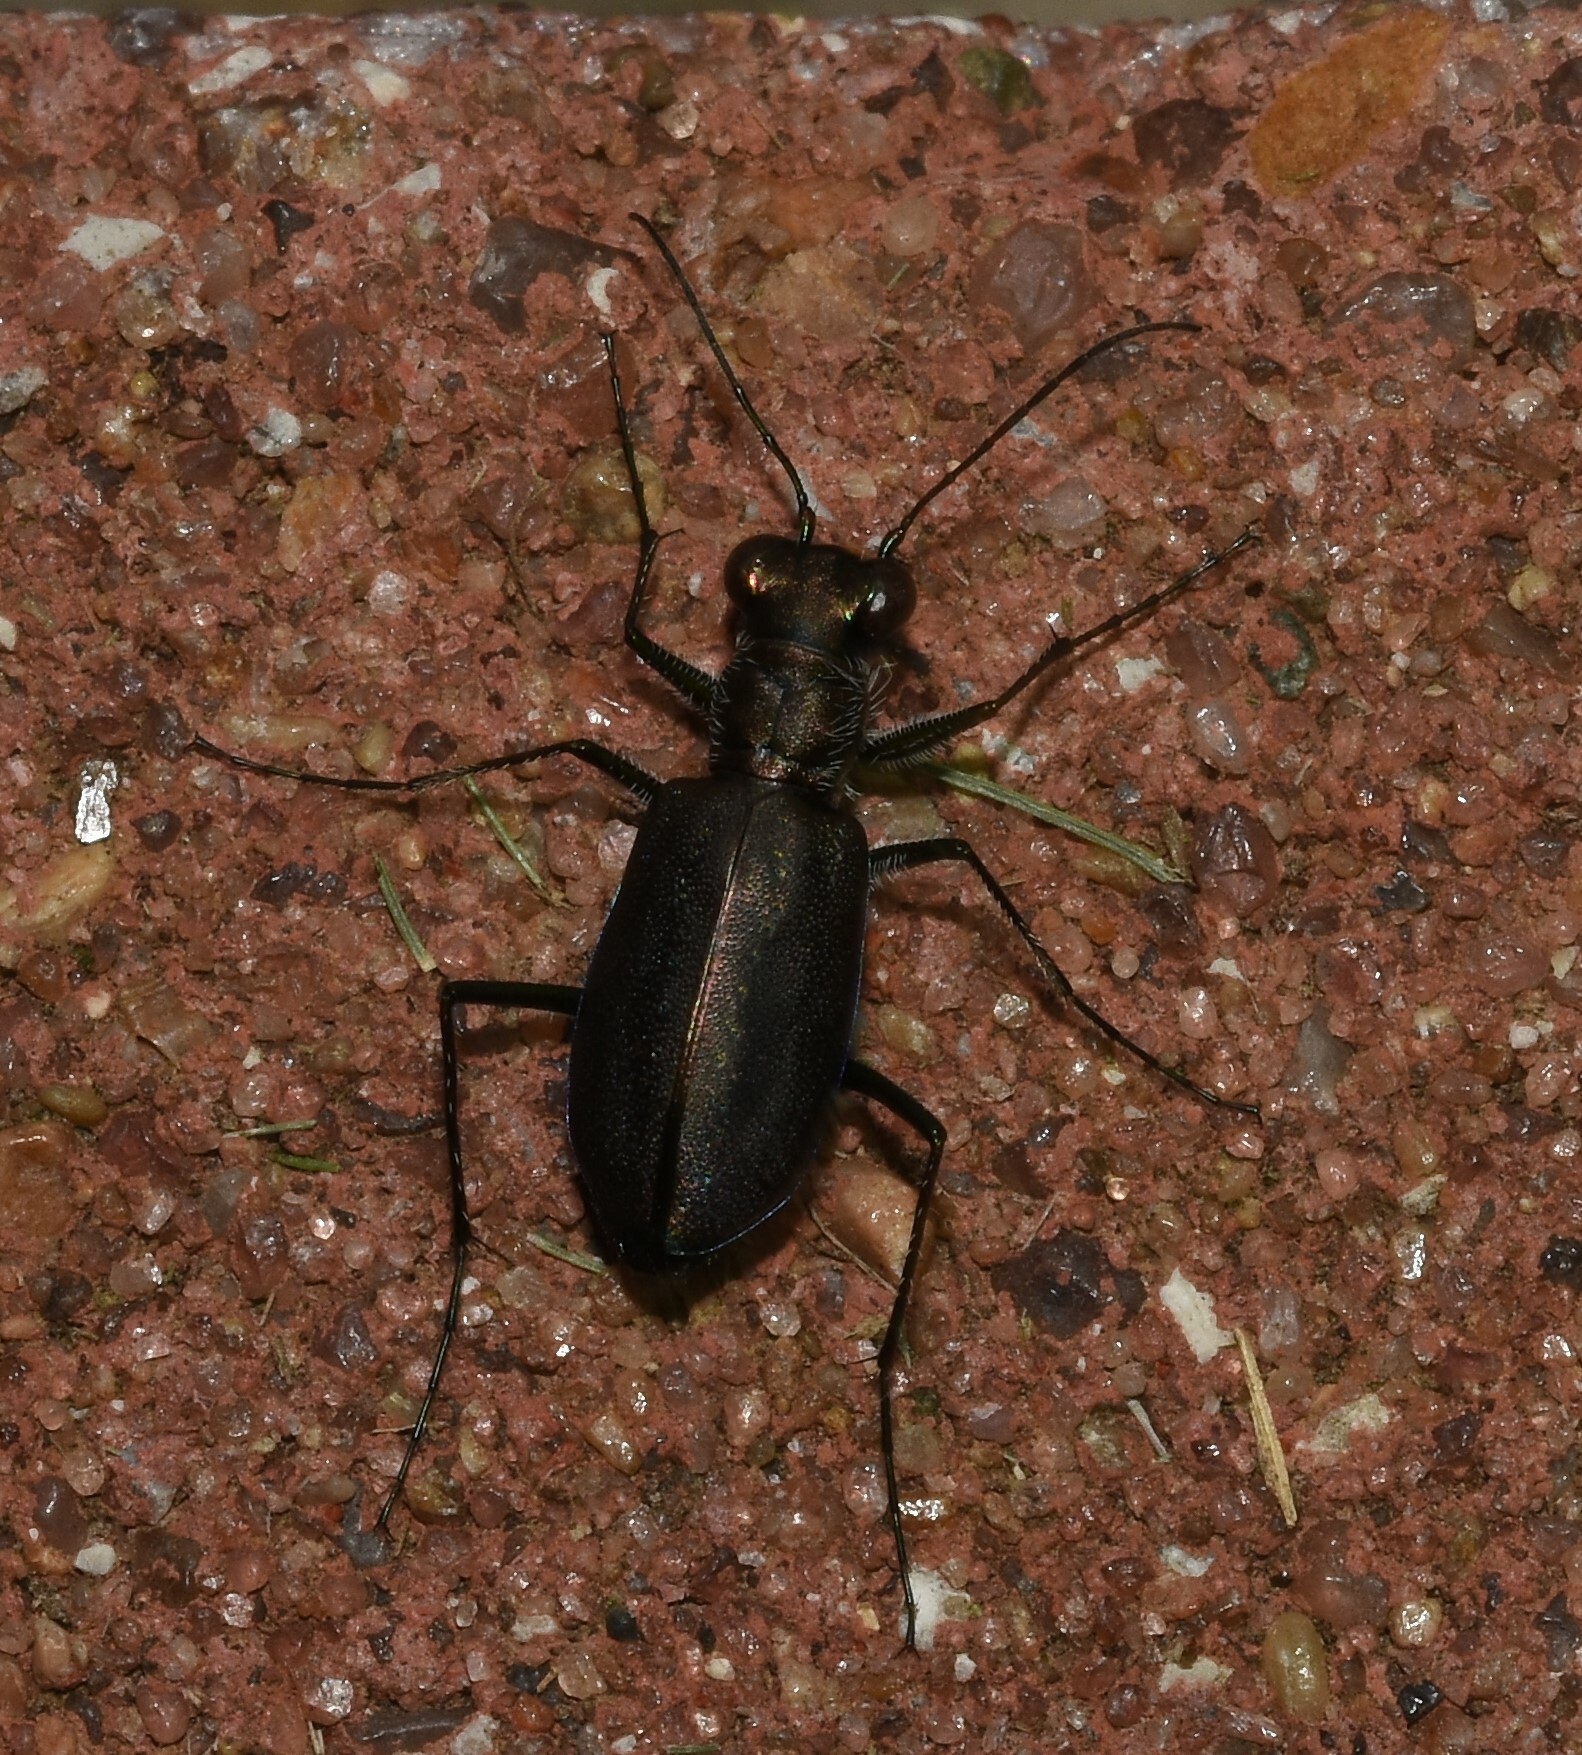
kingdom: Animalia
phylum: Arthropoda
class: Insecta
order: Coleoptera
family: Carabidae
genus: Cicindela
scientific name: Cicindela punctulata
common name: Punctured tiger beetle
